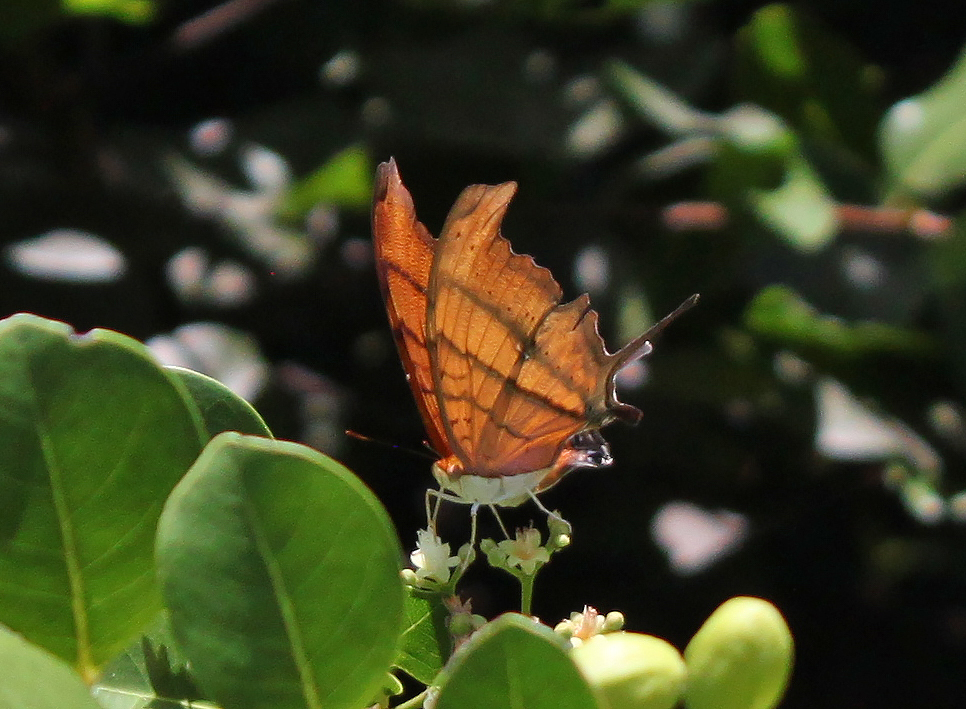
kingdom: Animalia
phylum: Arthropoda
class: Insecta
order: Lepidoptera
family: Nymphalidae
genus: Marpesia
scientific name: Marpesia petreus
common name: Red dagger wing
